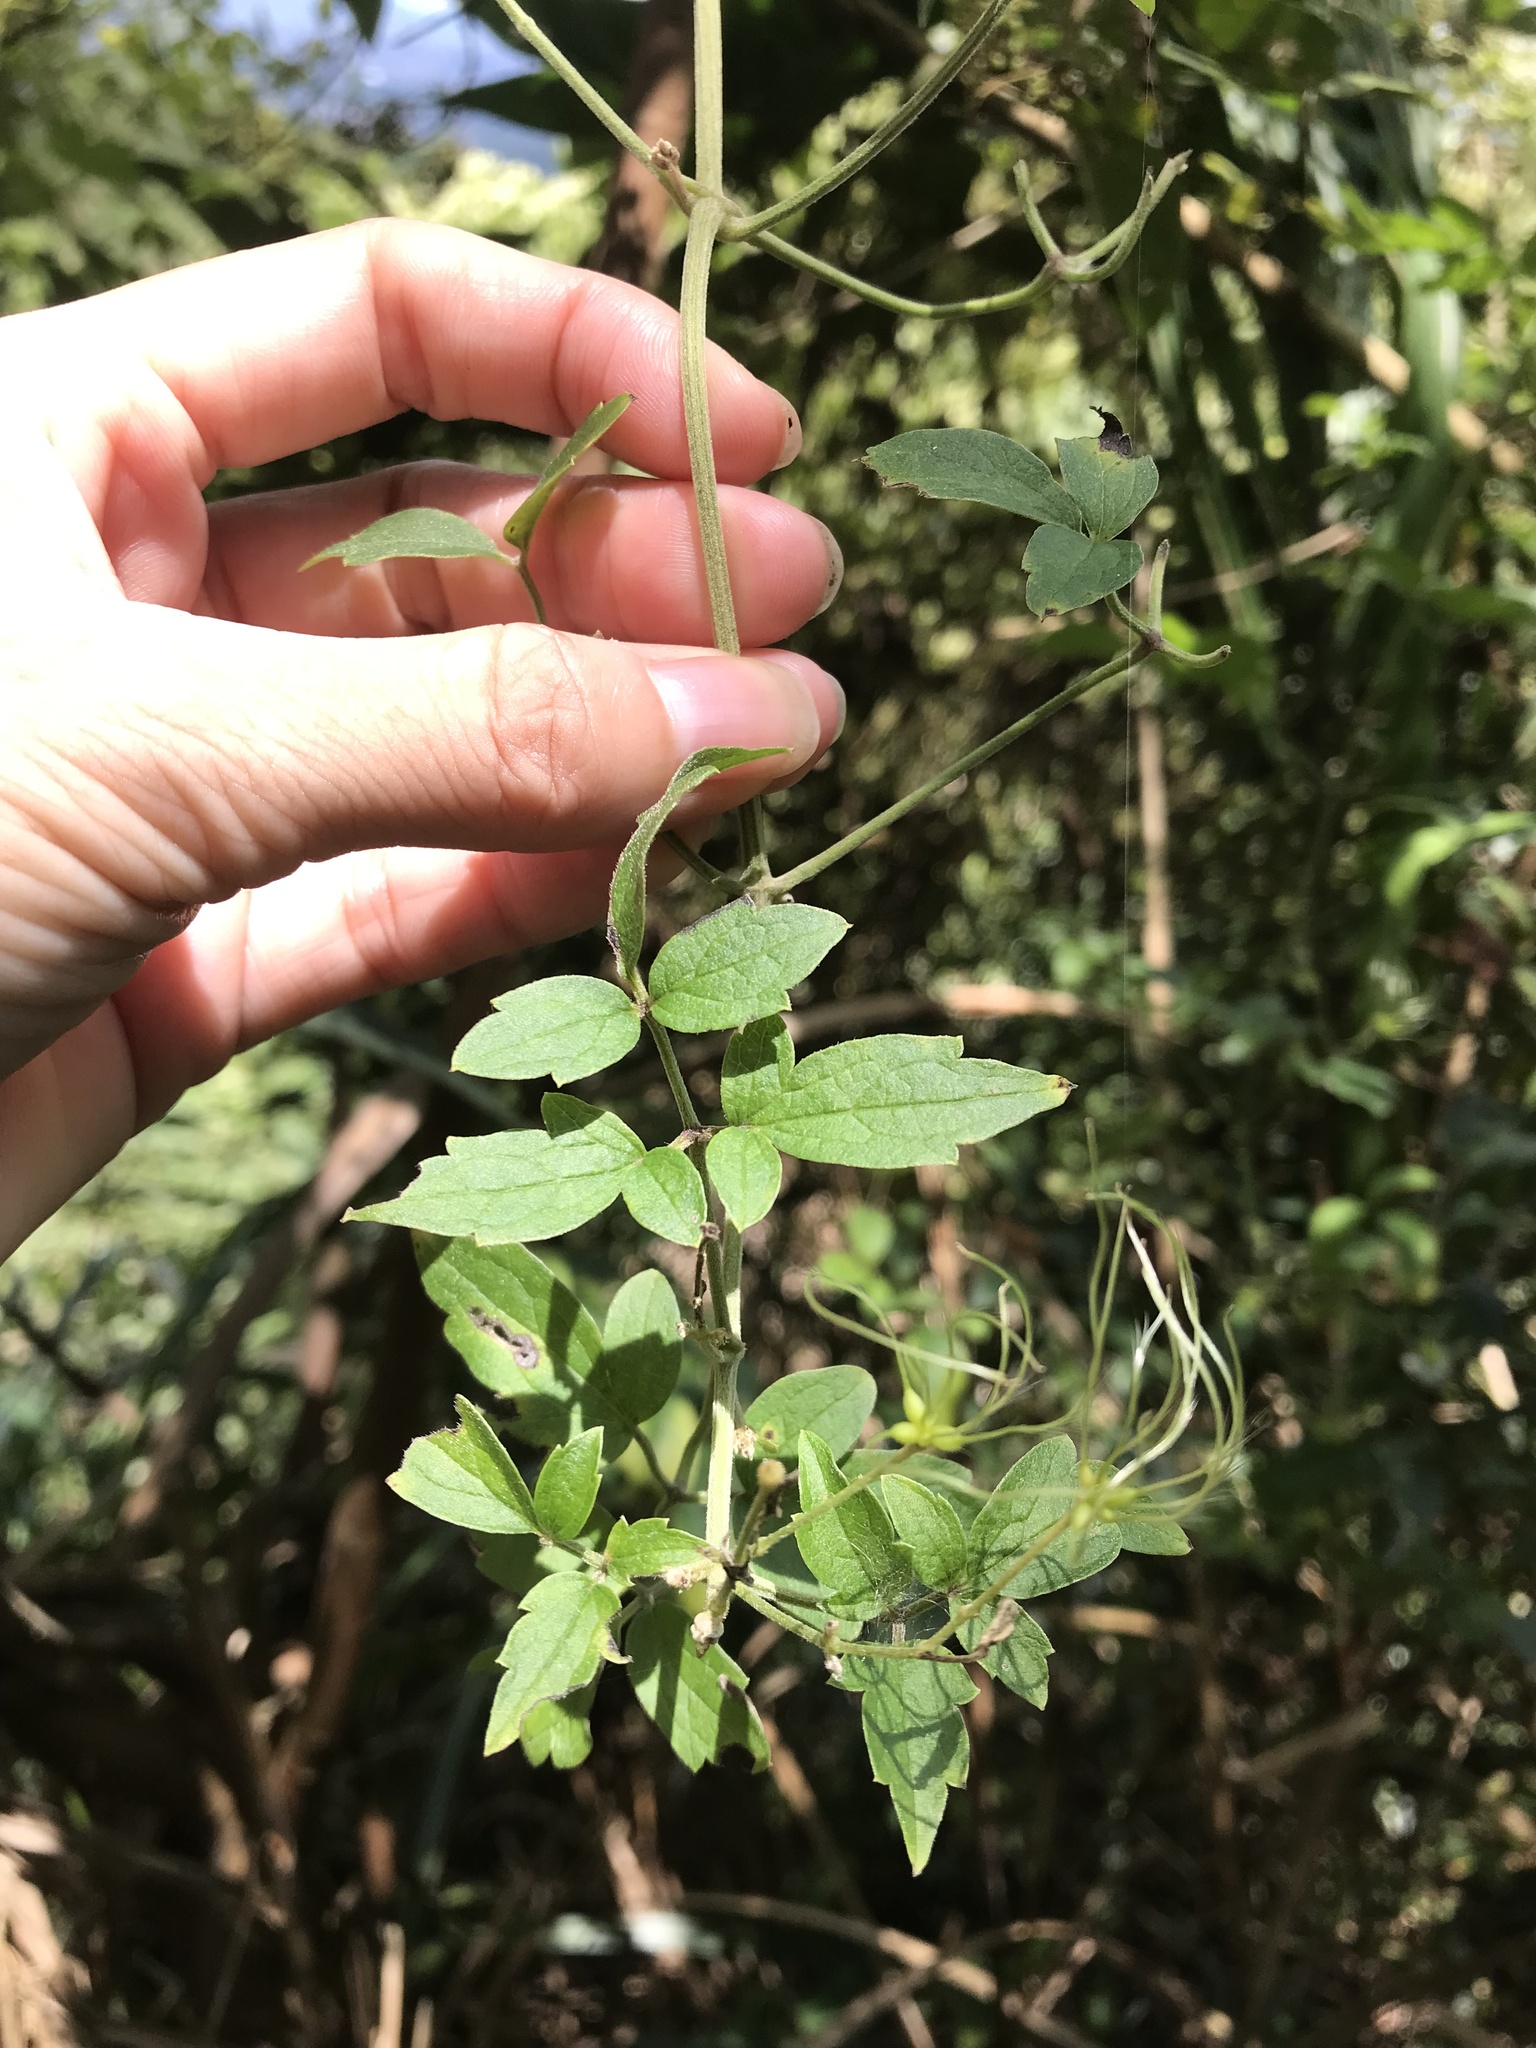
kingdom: Plantae
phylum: Tracheophyta
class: Magnoliopsida
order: Ranunculales
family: Ranunculaceae
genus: Clematis
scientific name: Clematis grata
